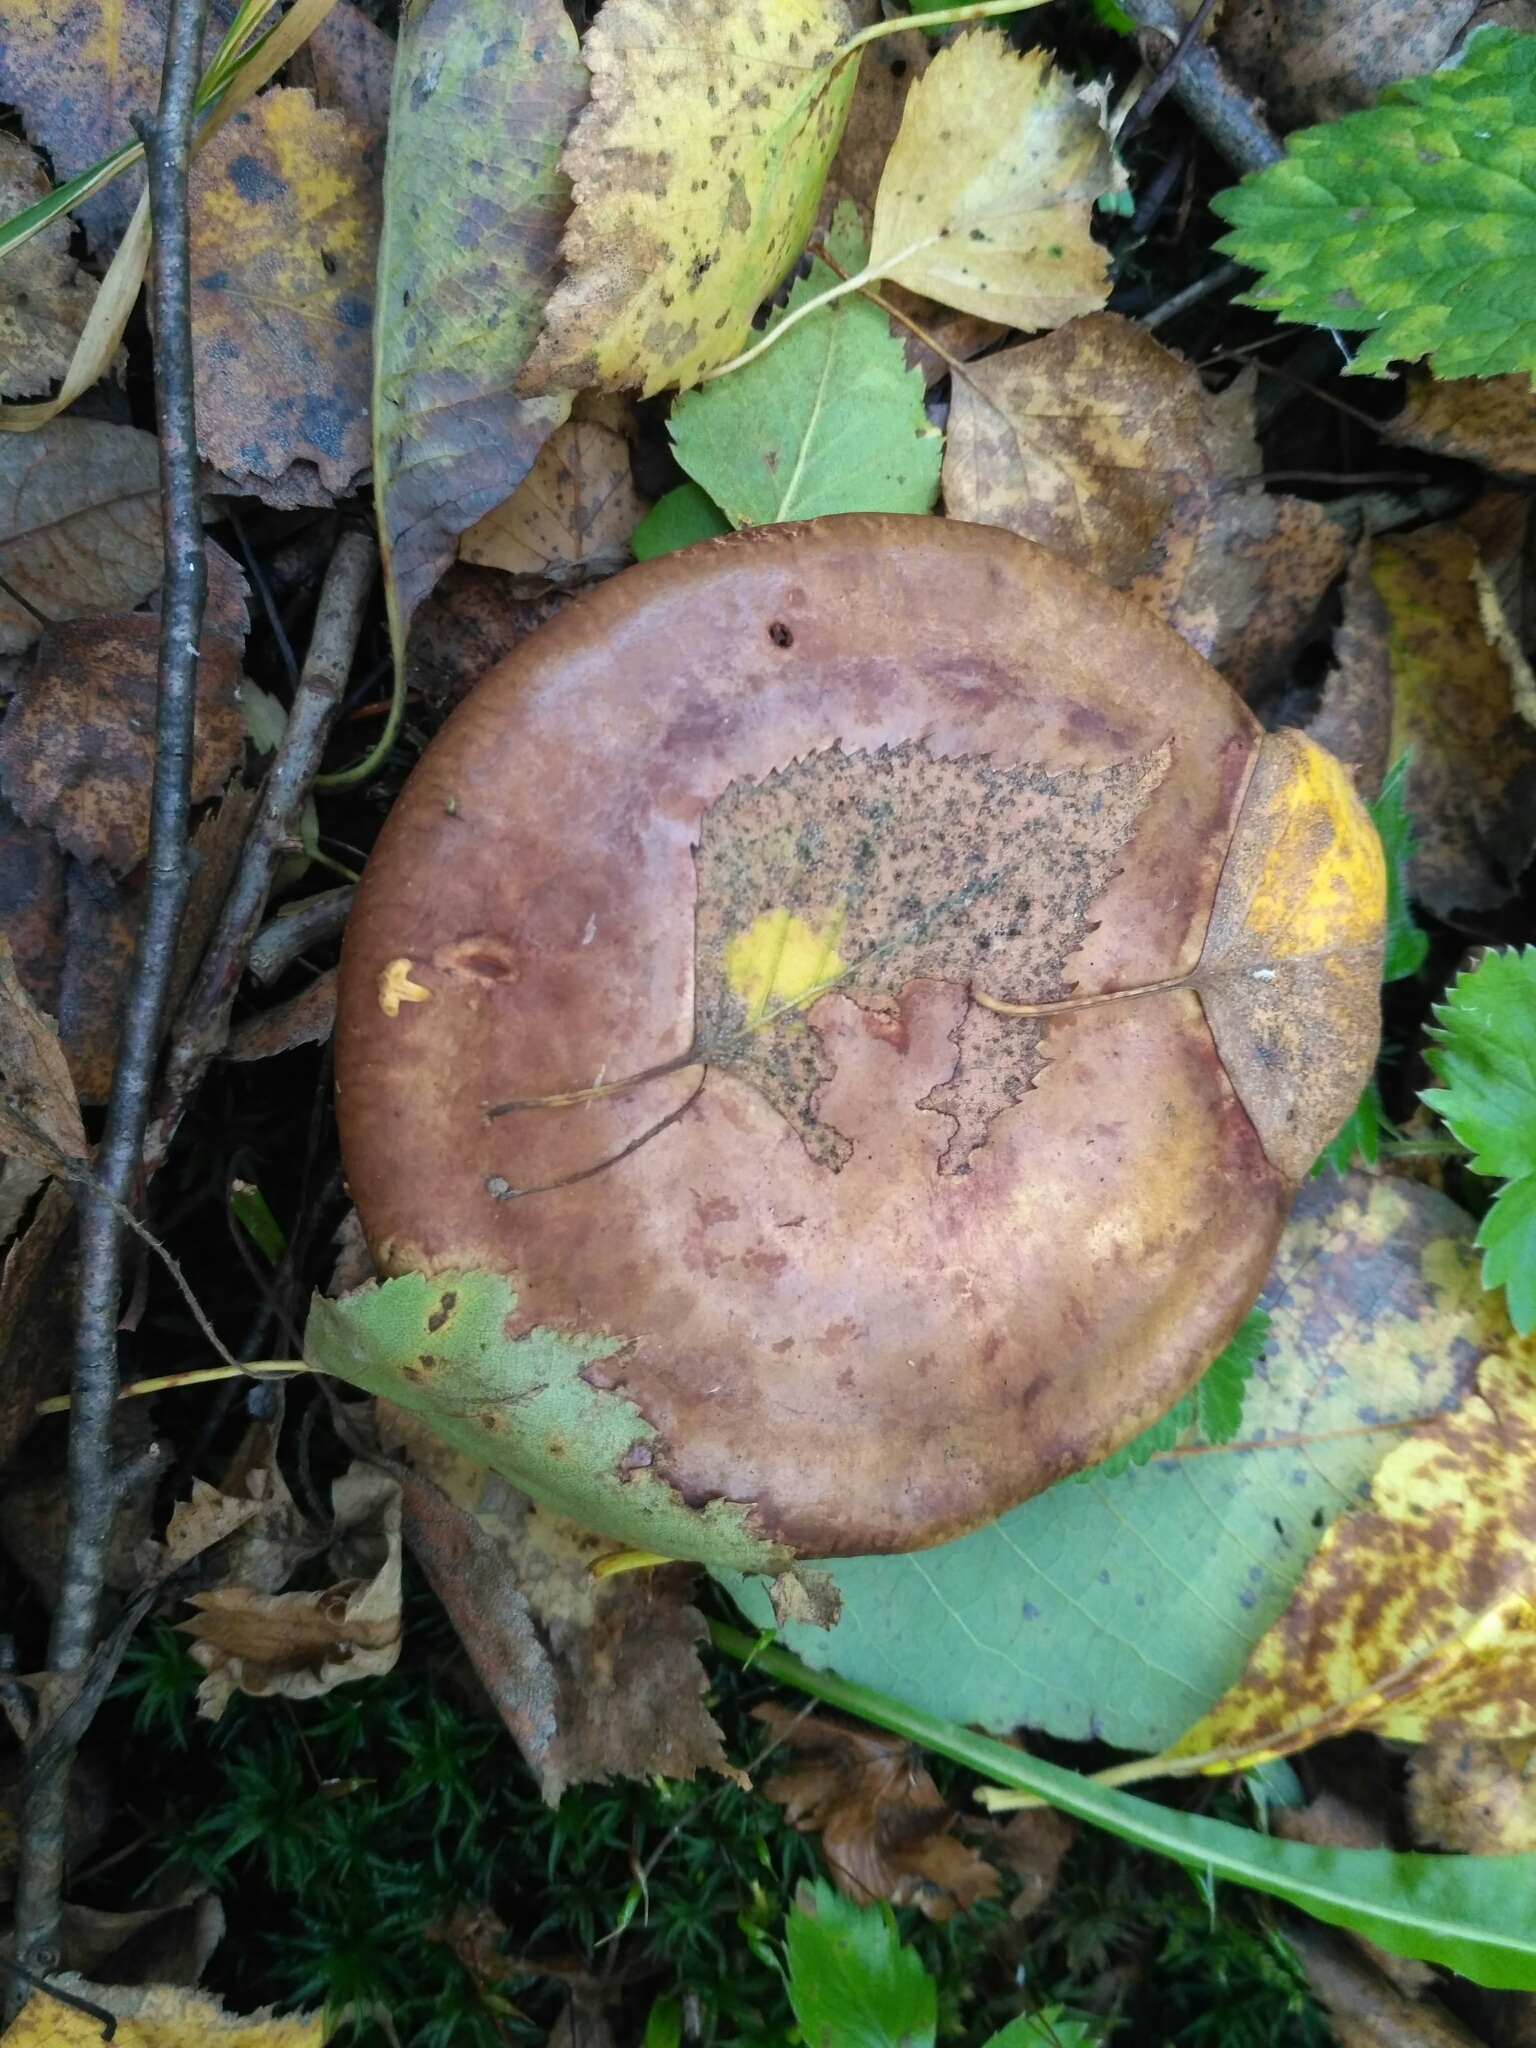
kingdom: Fungi
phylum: Basidiomycota
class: Agaricomycetes
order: Boletales
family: Paxillaceae
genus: Paxillus
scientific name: Paxillus involutus
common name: Brown roll rim
